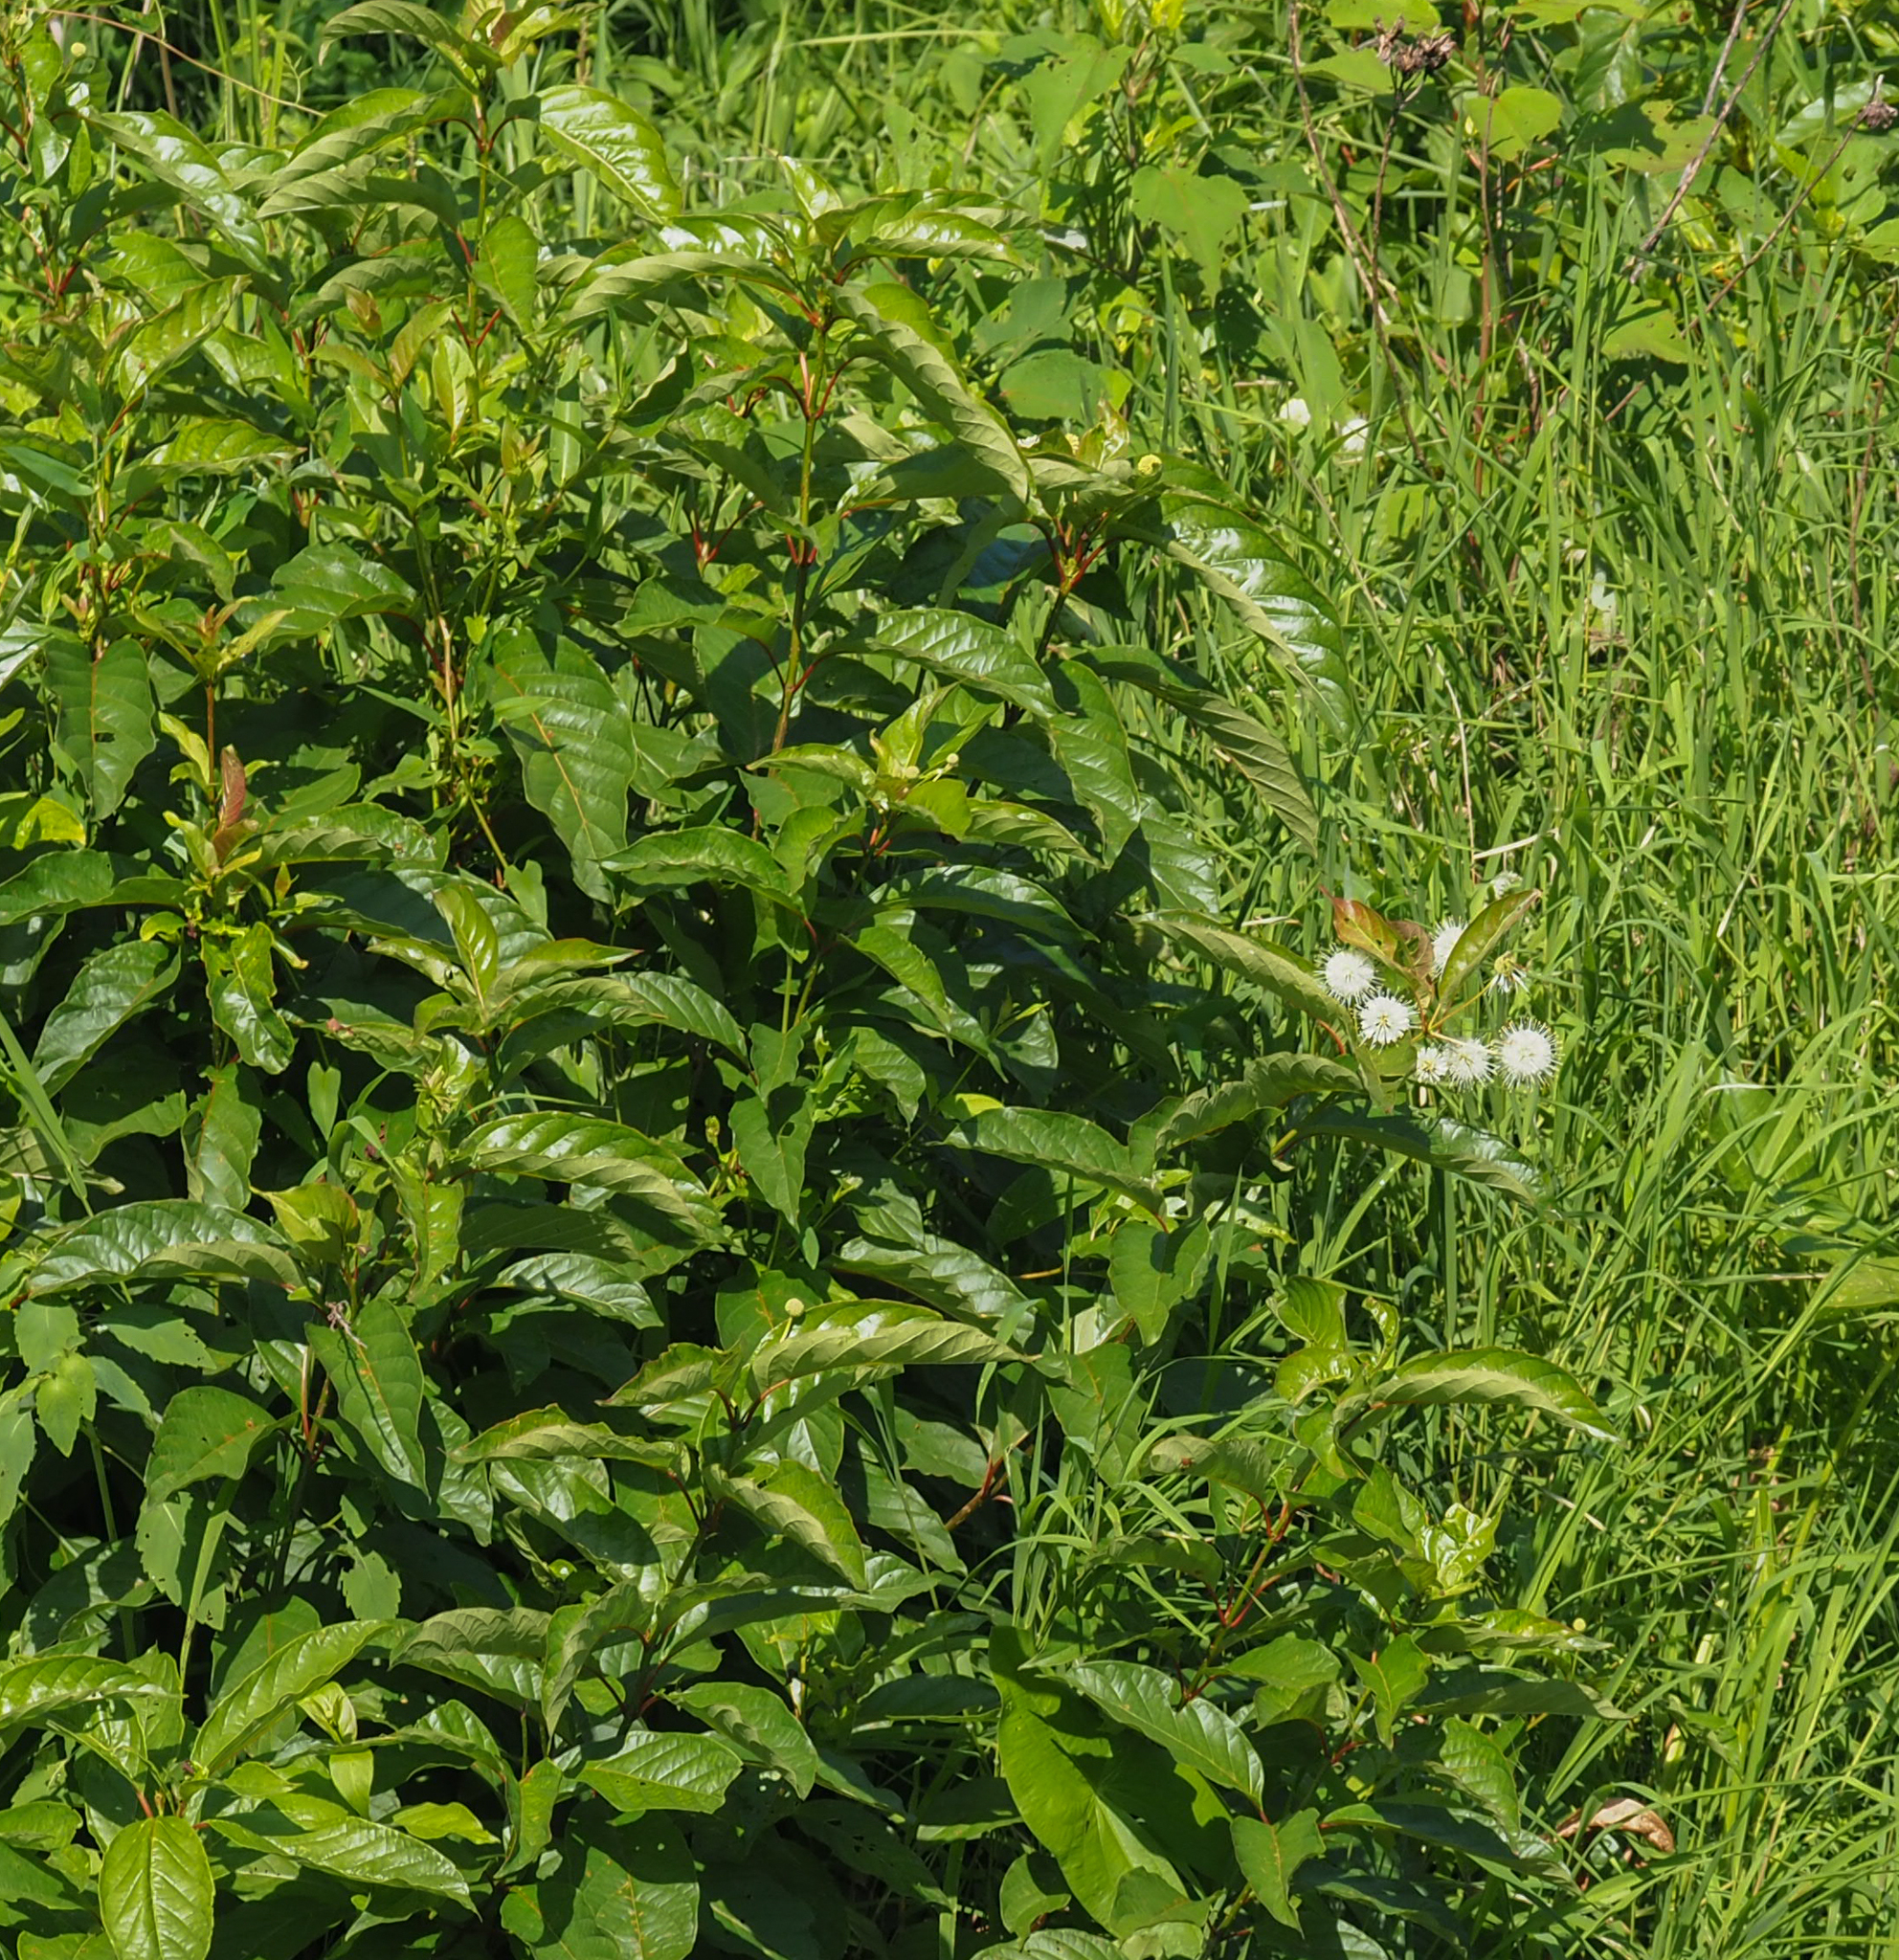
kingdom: Plantae
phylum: Tracheophyta
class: Magnoliopsida
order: Gentianales
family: Rubiaceae
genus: Cephalanthus
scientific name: Cephalanthus occidentalis
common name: Button-willow
